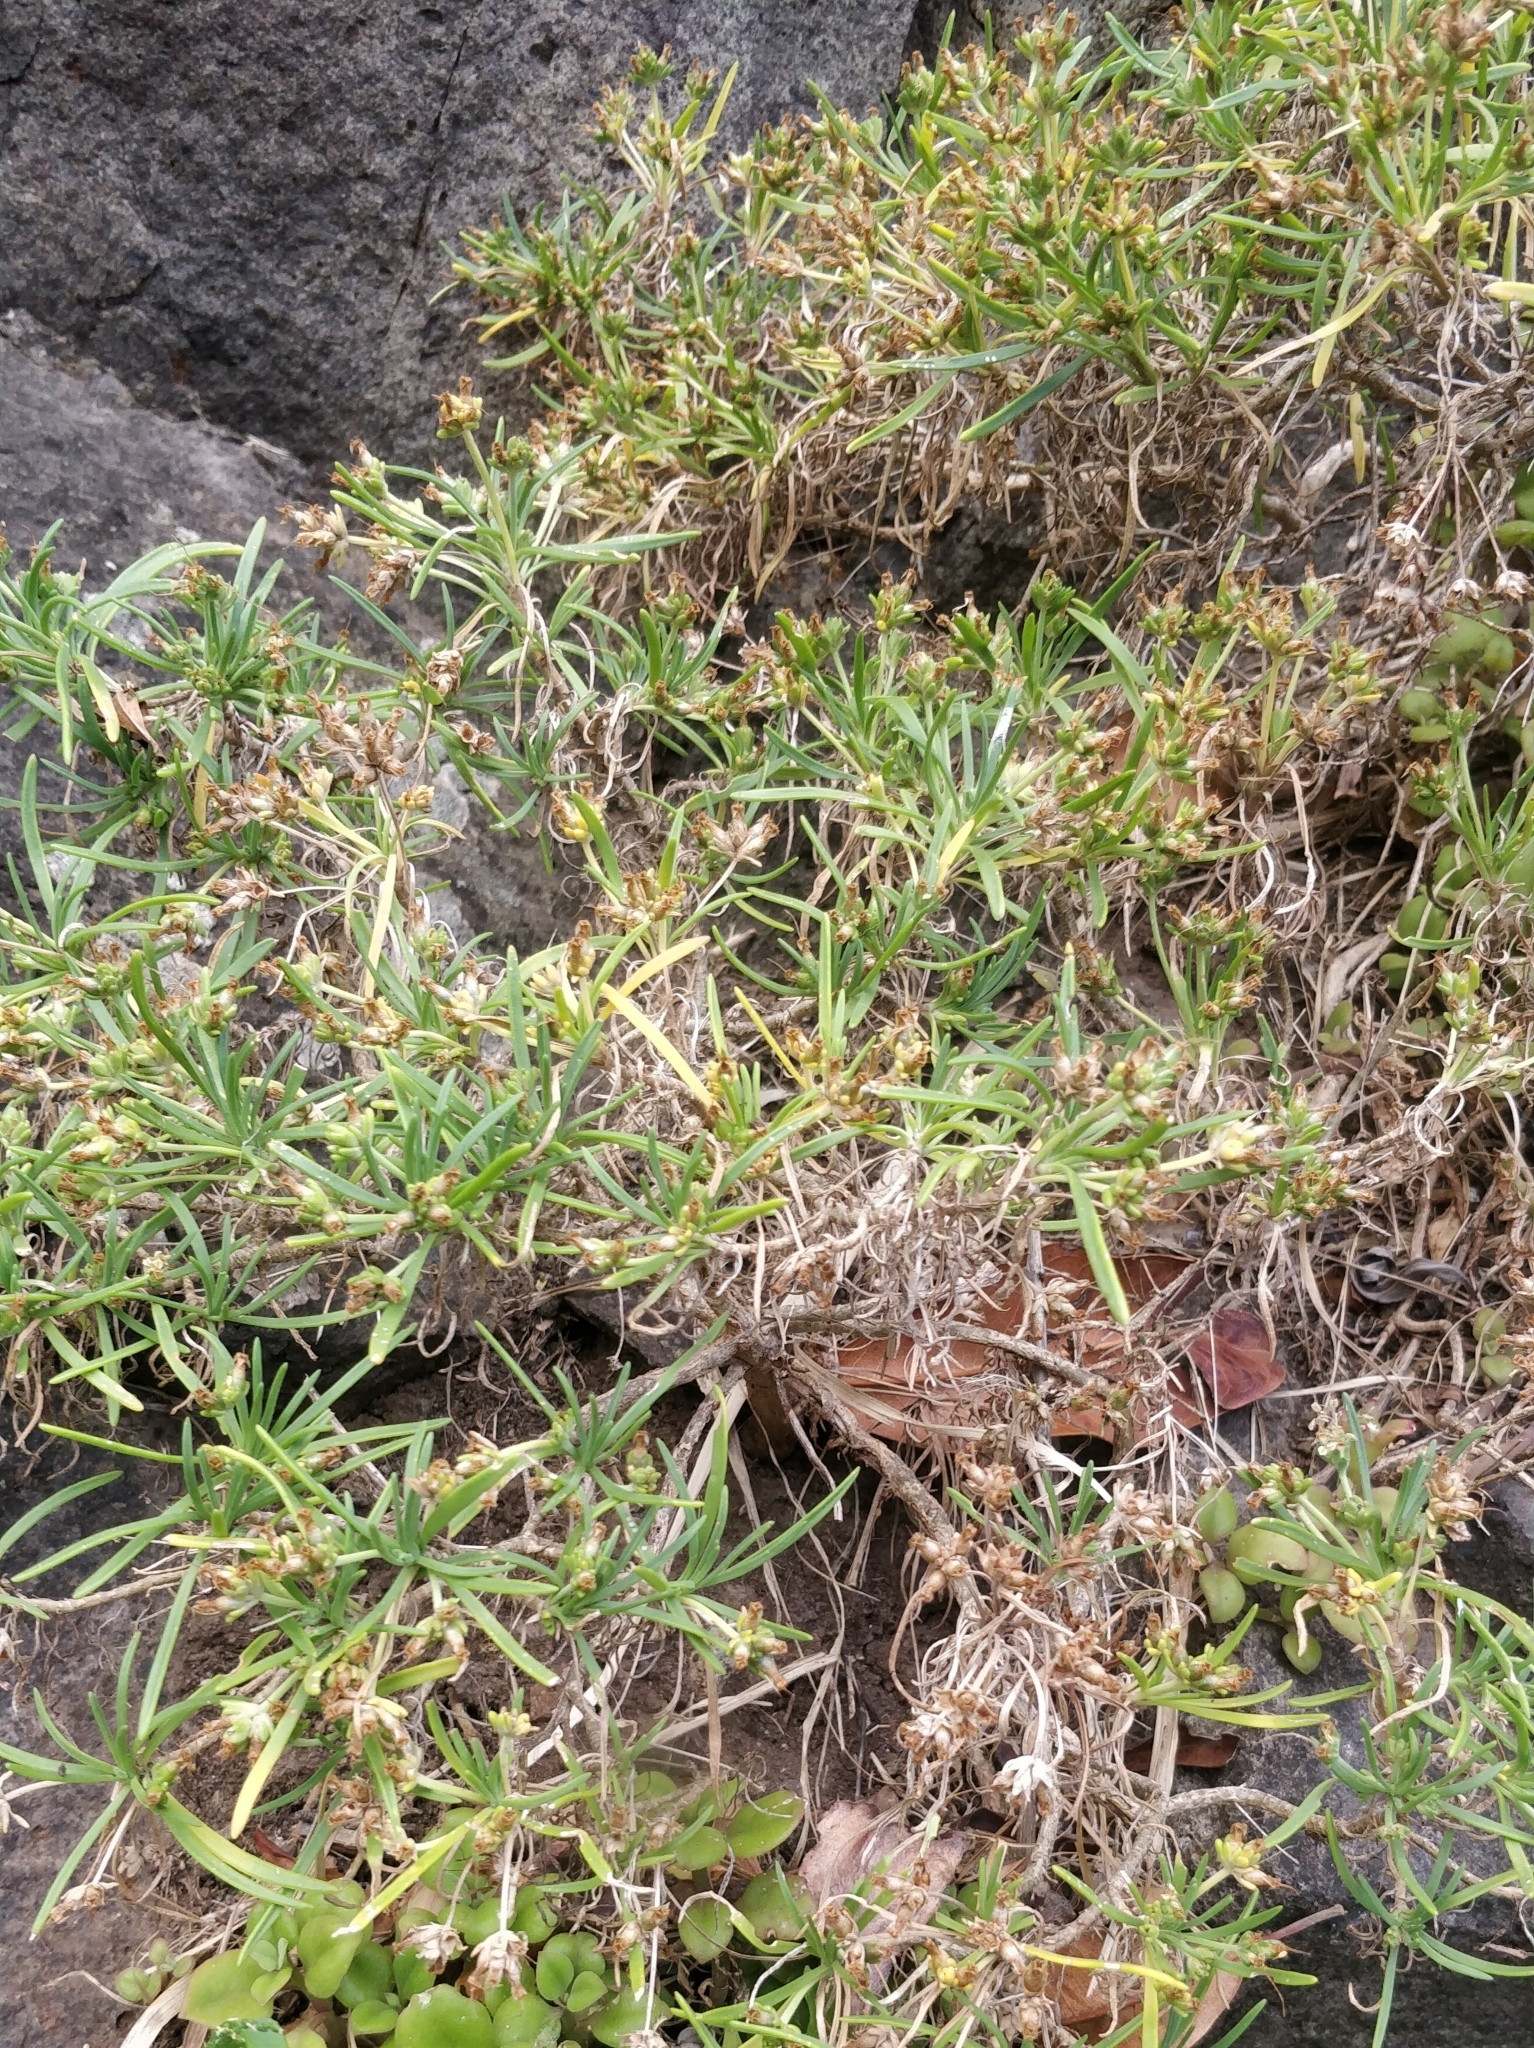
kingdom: Plantae
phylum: Tracheophyta
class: Magnoliopsida
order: Lamiales
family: Plantaginaceae
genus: Plantago
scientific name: Plantago arborescens
